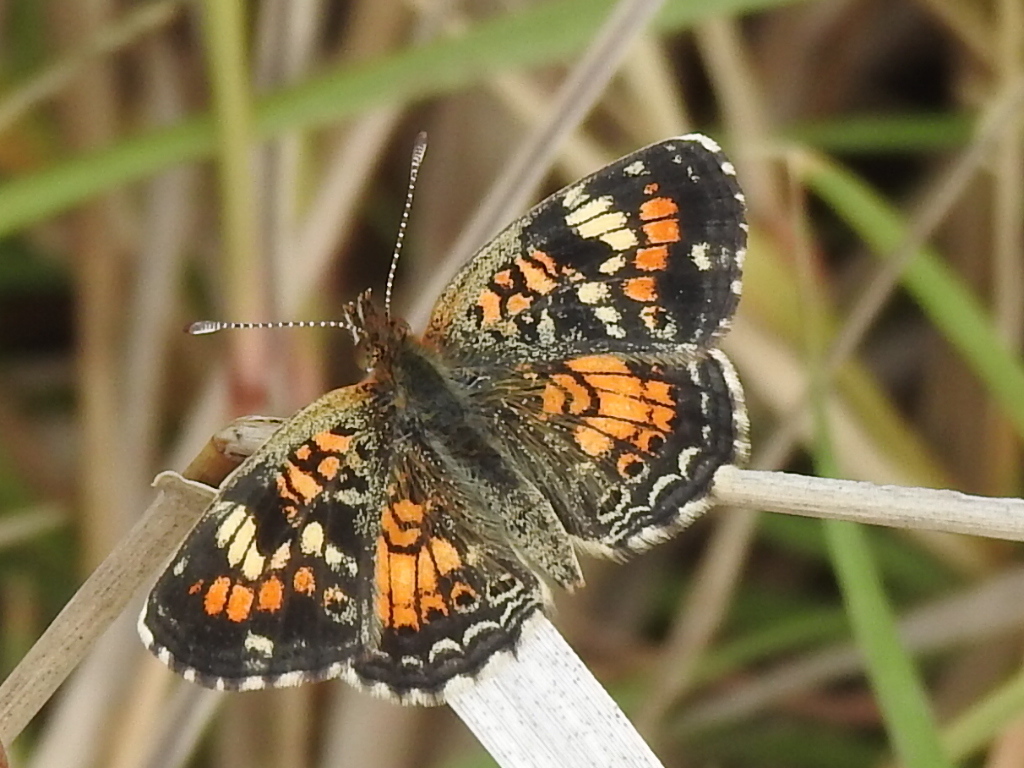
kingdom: Animalia
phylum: Arthropoda
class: Insecta
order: Lepidoptera
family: Nymphalidae
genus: Phyciodes
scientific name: Phyciodes phaon
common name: Phaon crescent
